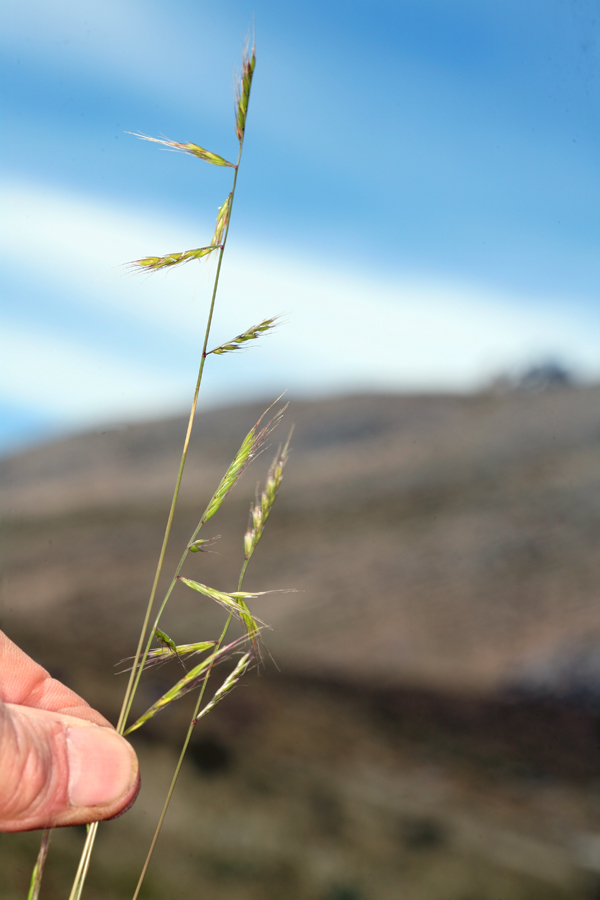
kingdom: Plantae
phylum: Tracheophyta
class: Liliopsida
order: Poales
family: Poaceae
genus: Festuca
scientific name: Festuca microstachys
